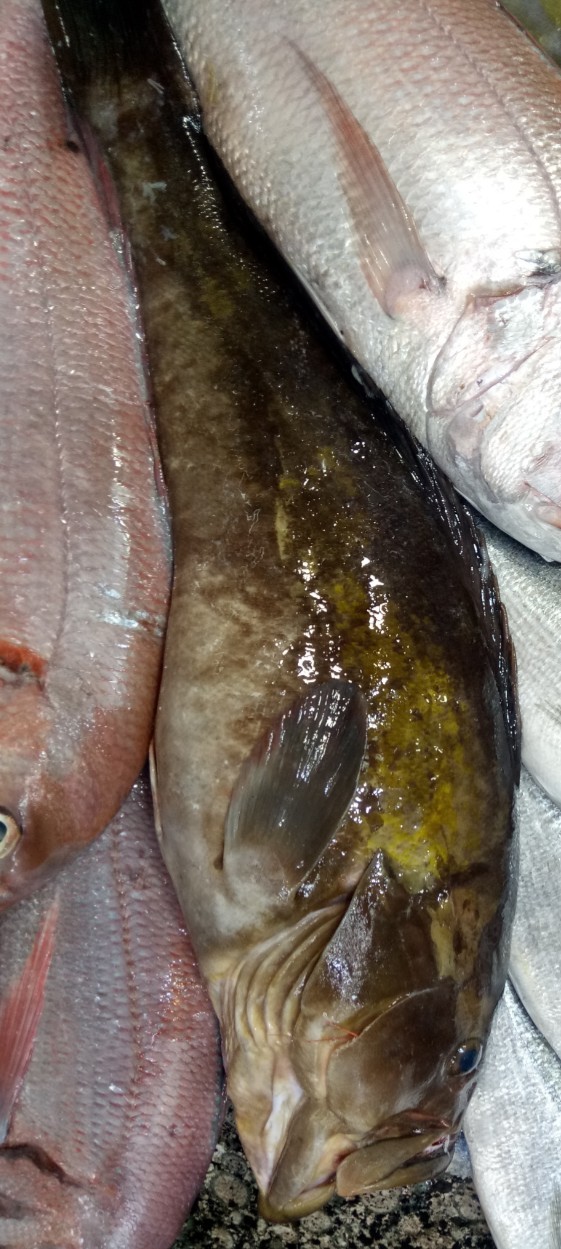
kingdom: Animalia
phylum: Chordata
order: Perciformes
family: Serranidae
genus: Epinephelus
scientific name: Epinephelus costae
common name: Goldblotch grouper
